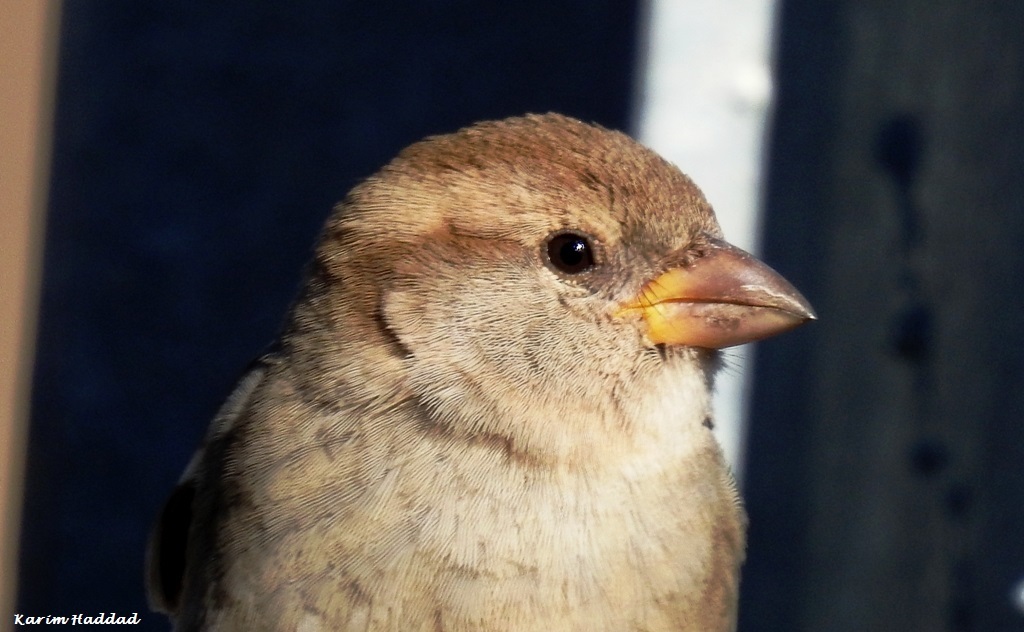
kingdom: Animalia
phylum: Chordata
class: Aves
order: Passeriformes
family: Passeridae
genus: Passer
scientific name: Passer hispaniolensis
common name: Spanish sparrow
